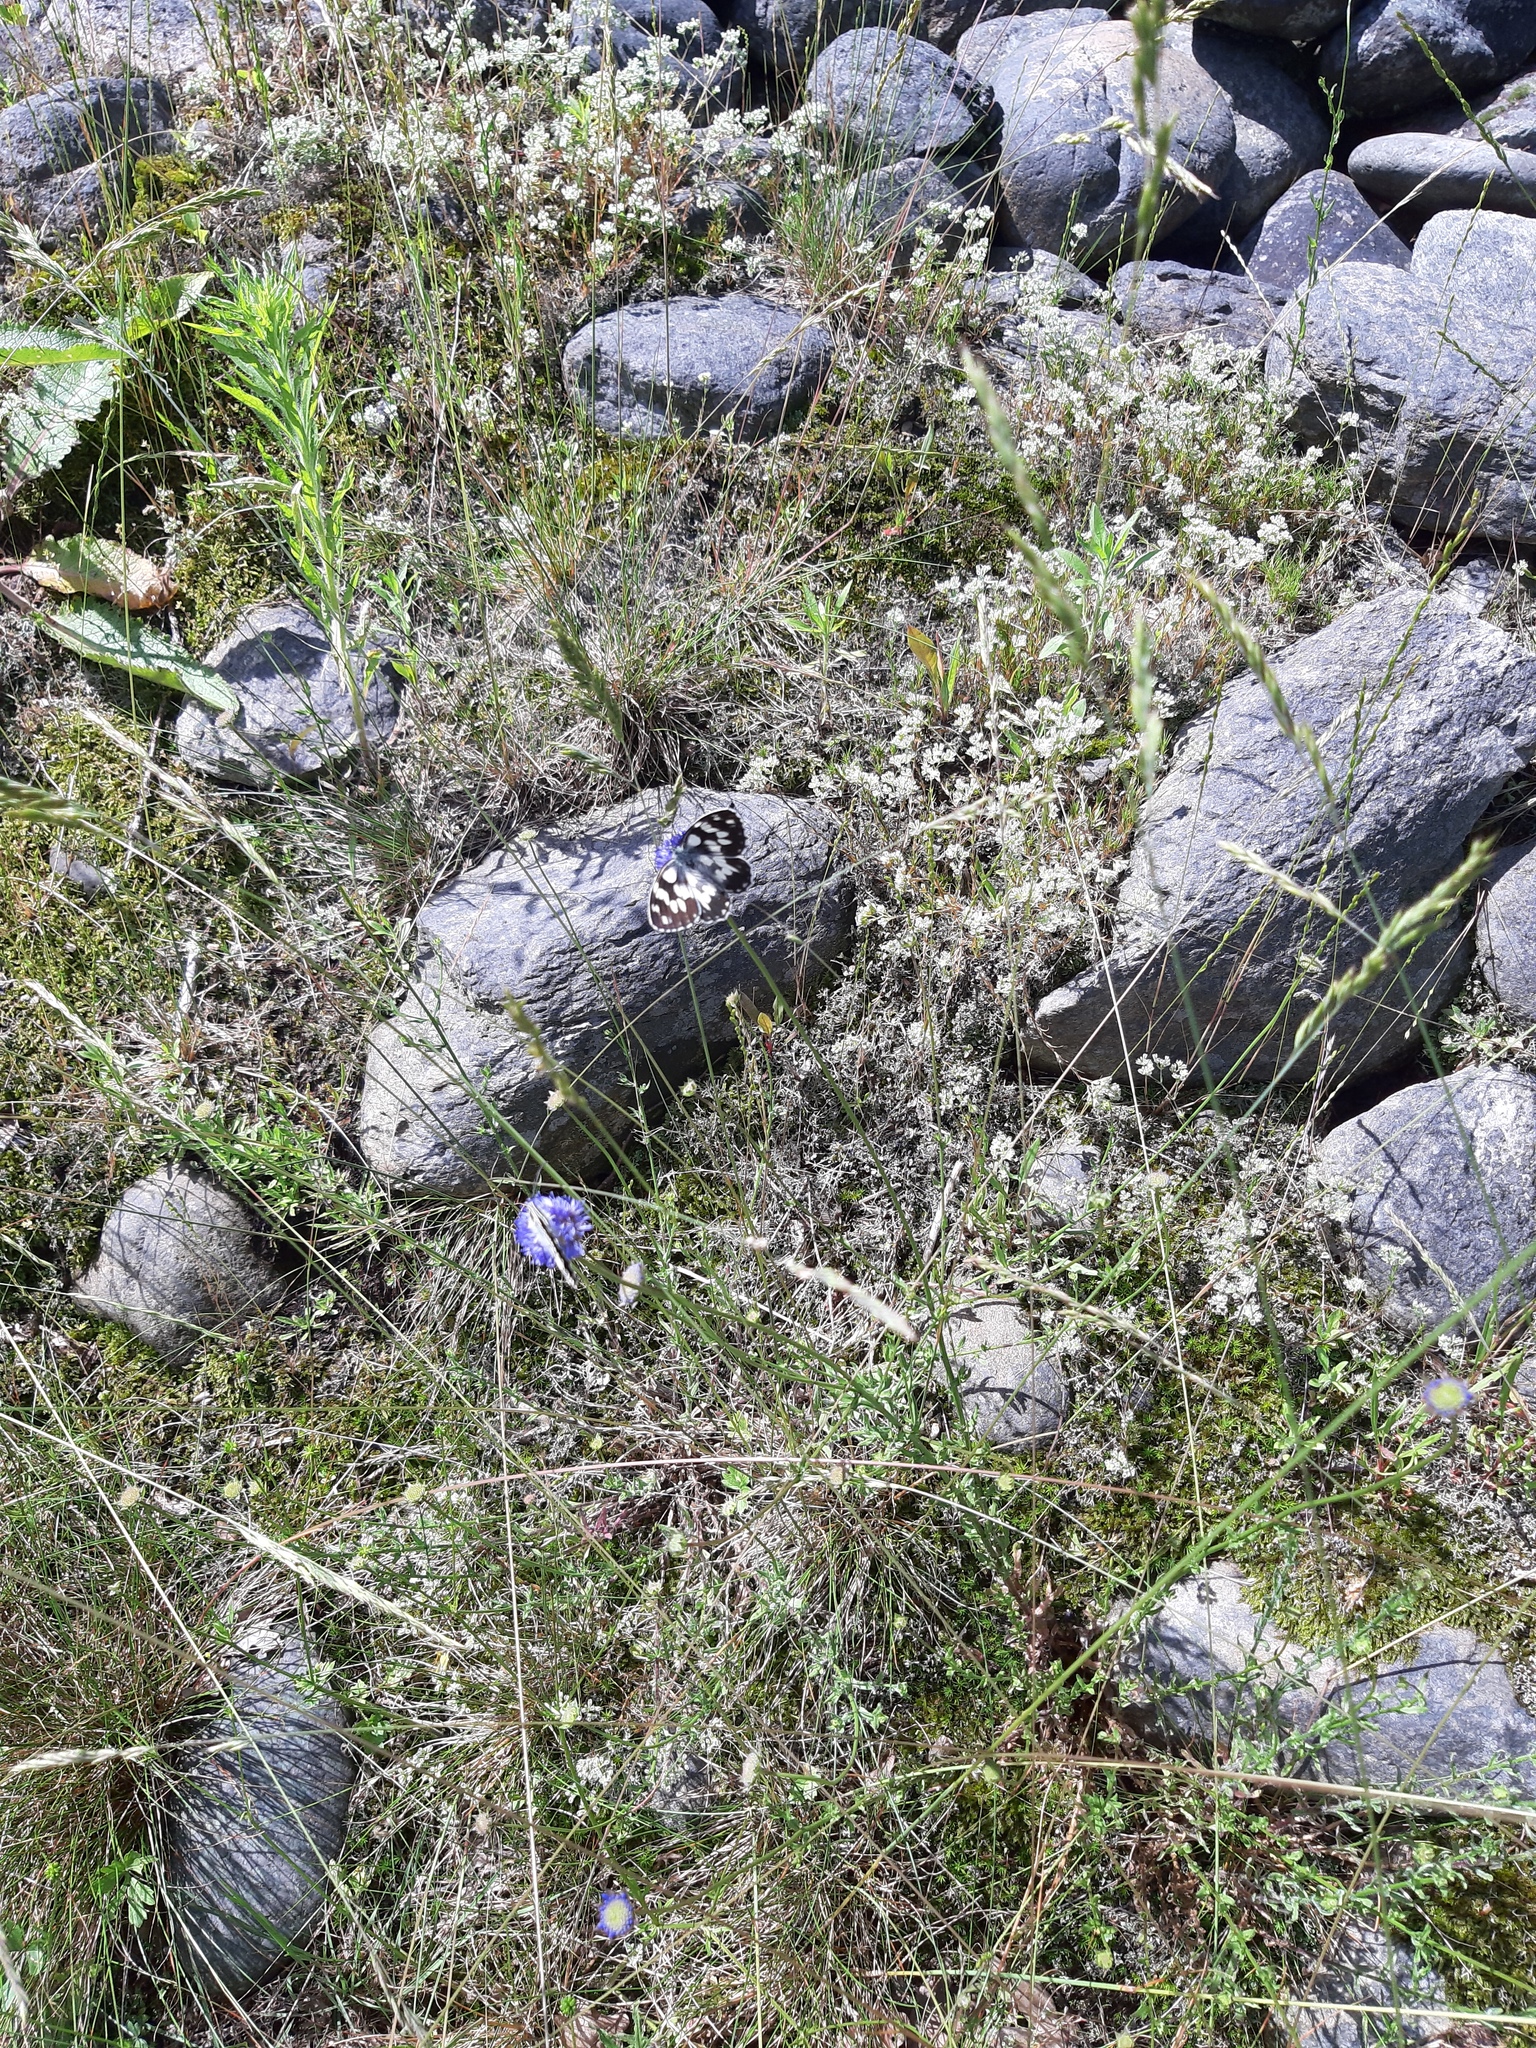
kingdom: Animalia
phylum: Arthropoda
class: Insecta
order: Lepidoptera
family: Nymphalidae
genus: Melanargia
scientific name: Melanargia galathea
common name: Marbled white
